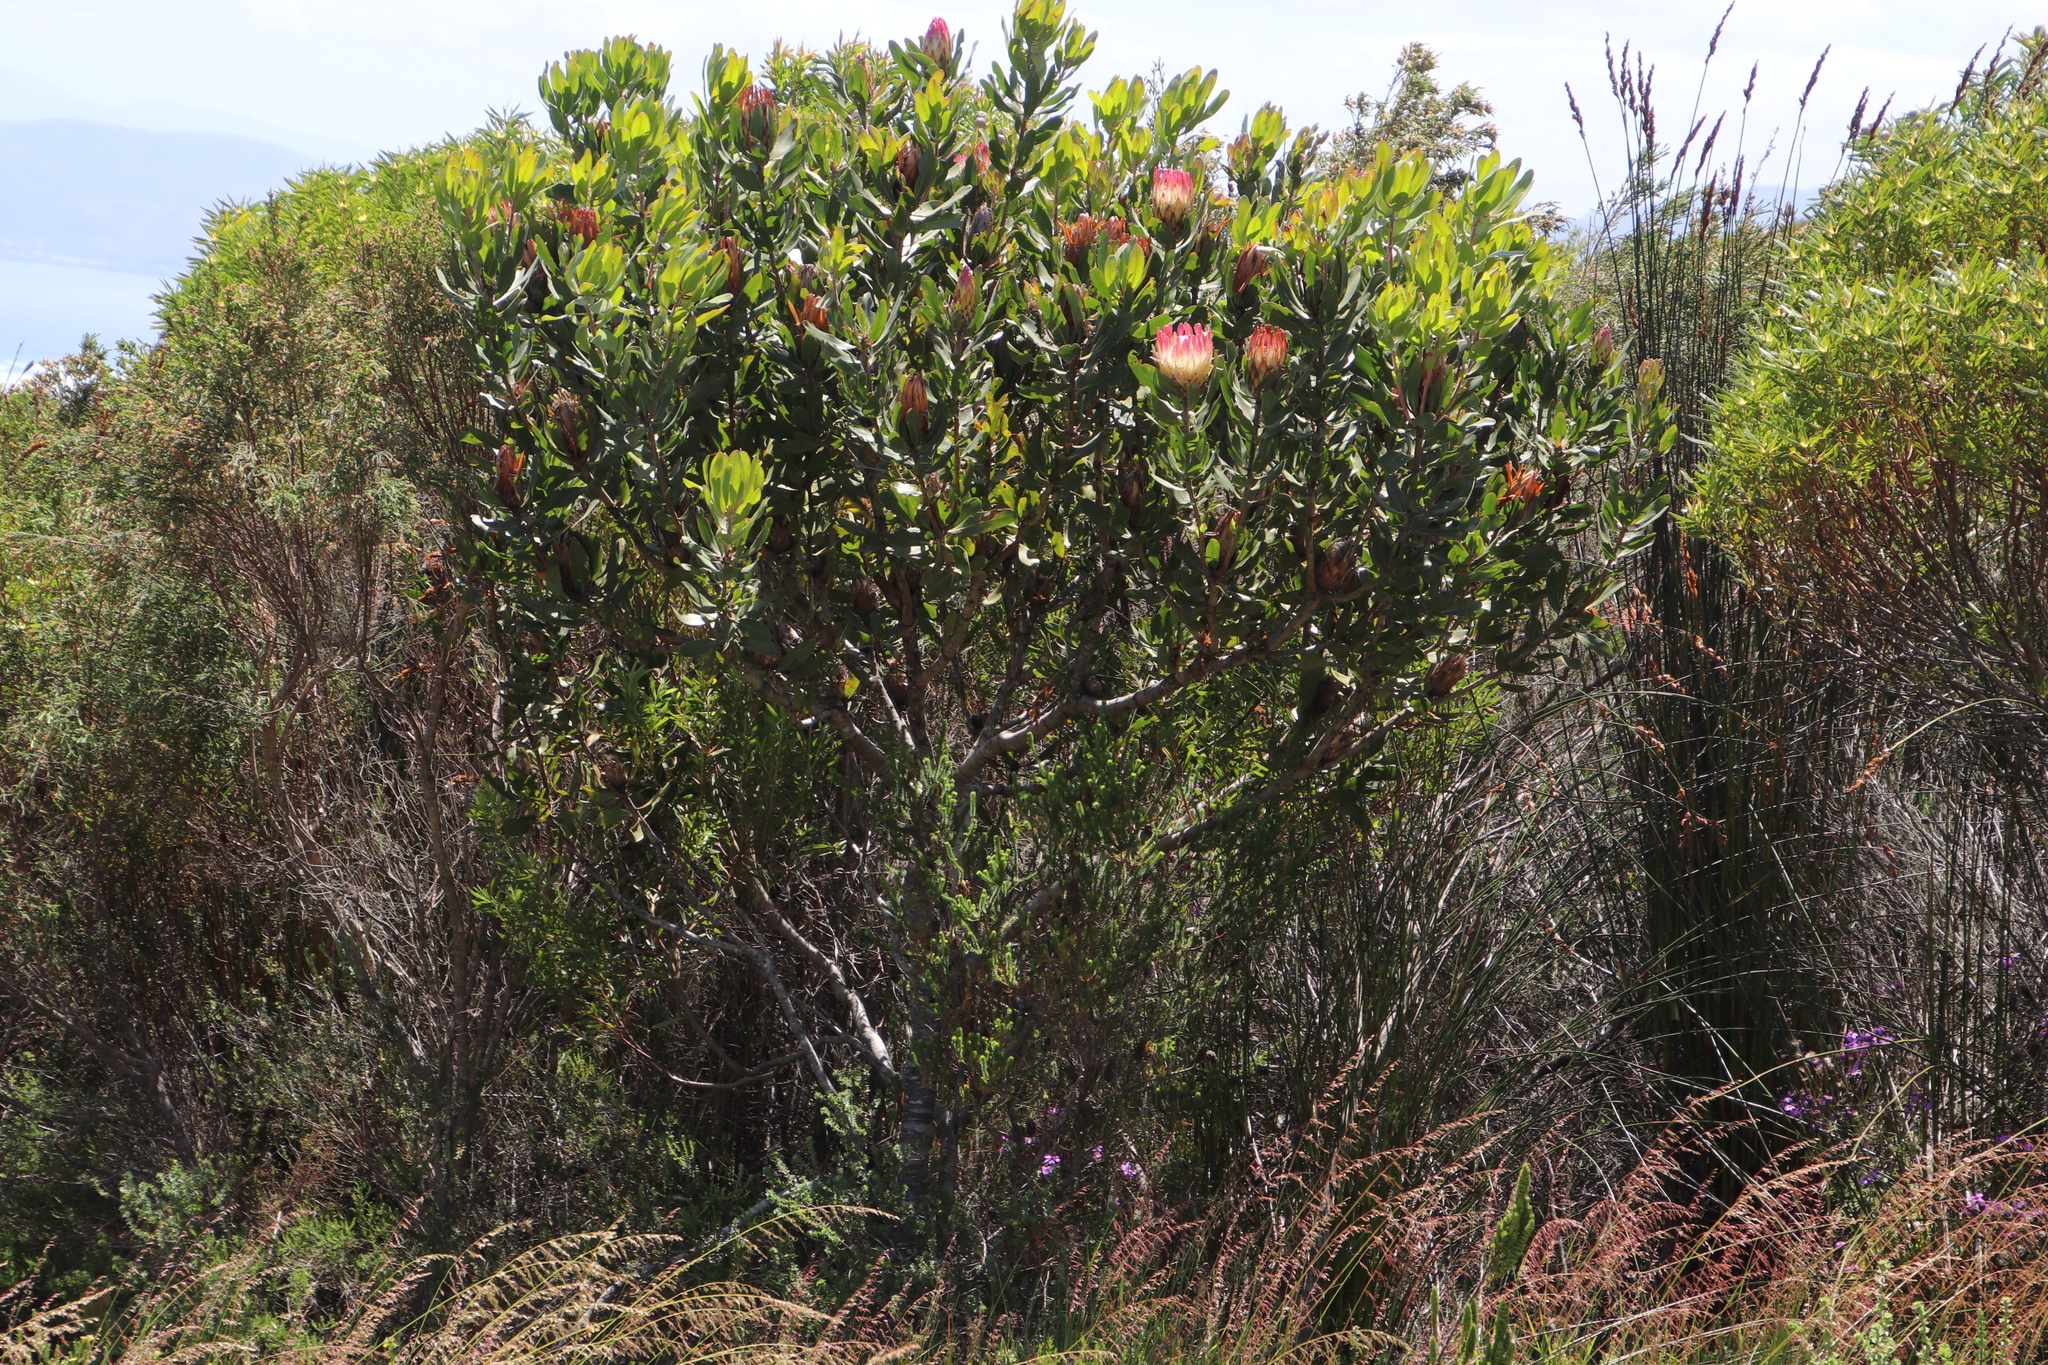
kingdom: Plantae
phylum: Tracheophyta
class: Magnoliopsida
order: Proteales
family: Proteaceae
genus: Protea
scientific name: Protea obtusifolia
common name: Bredasdorp sugarbush
